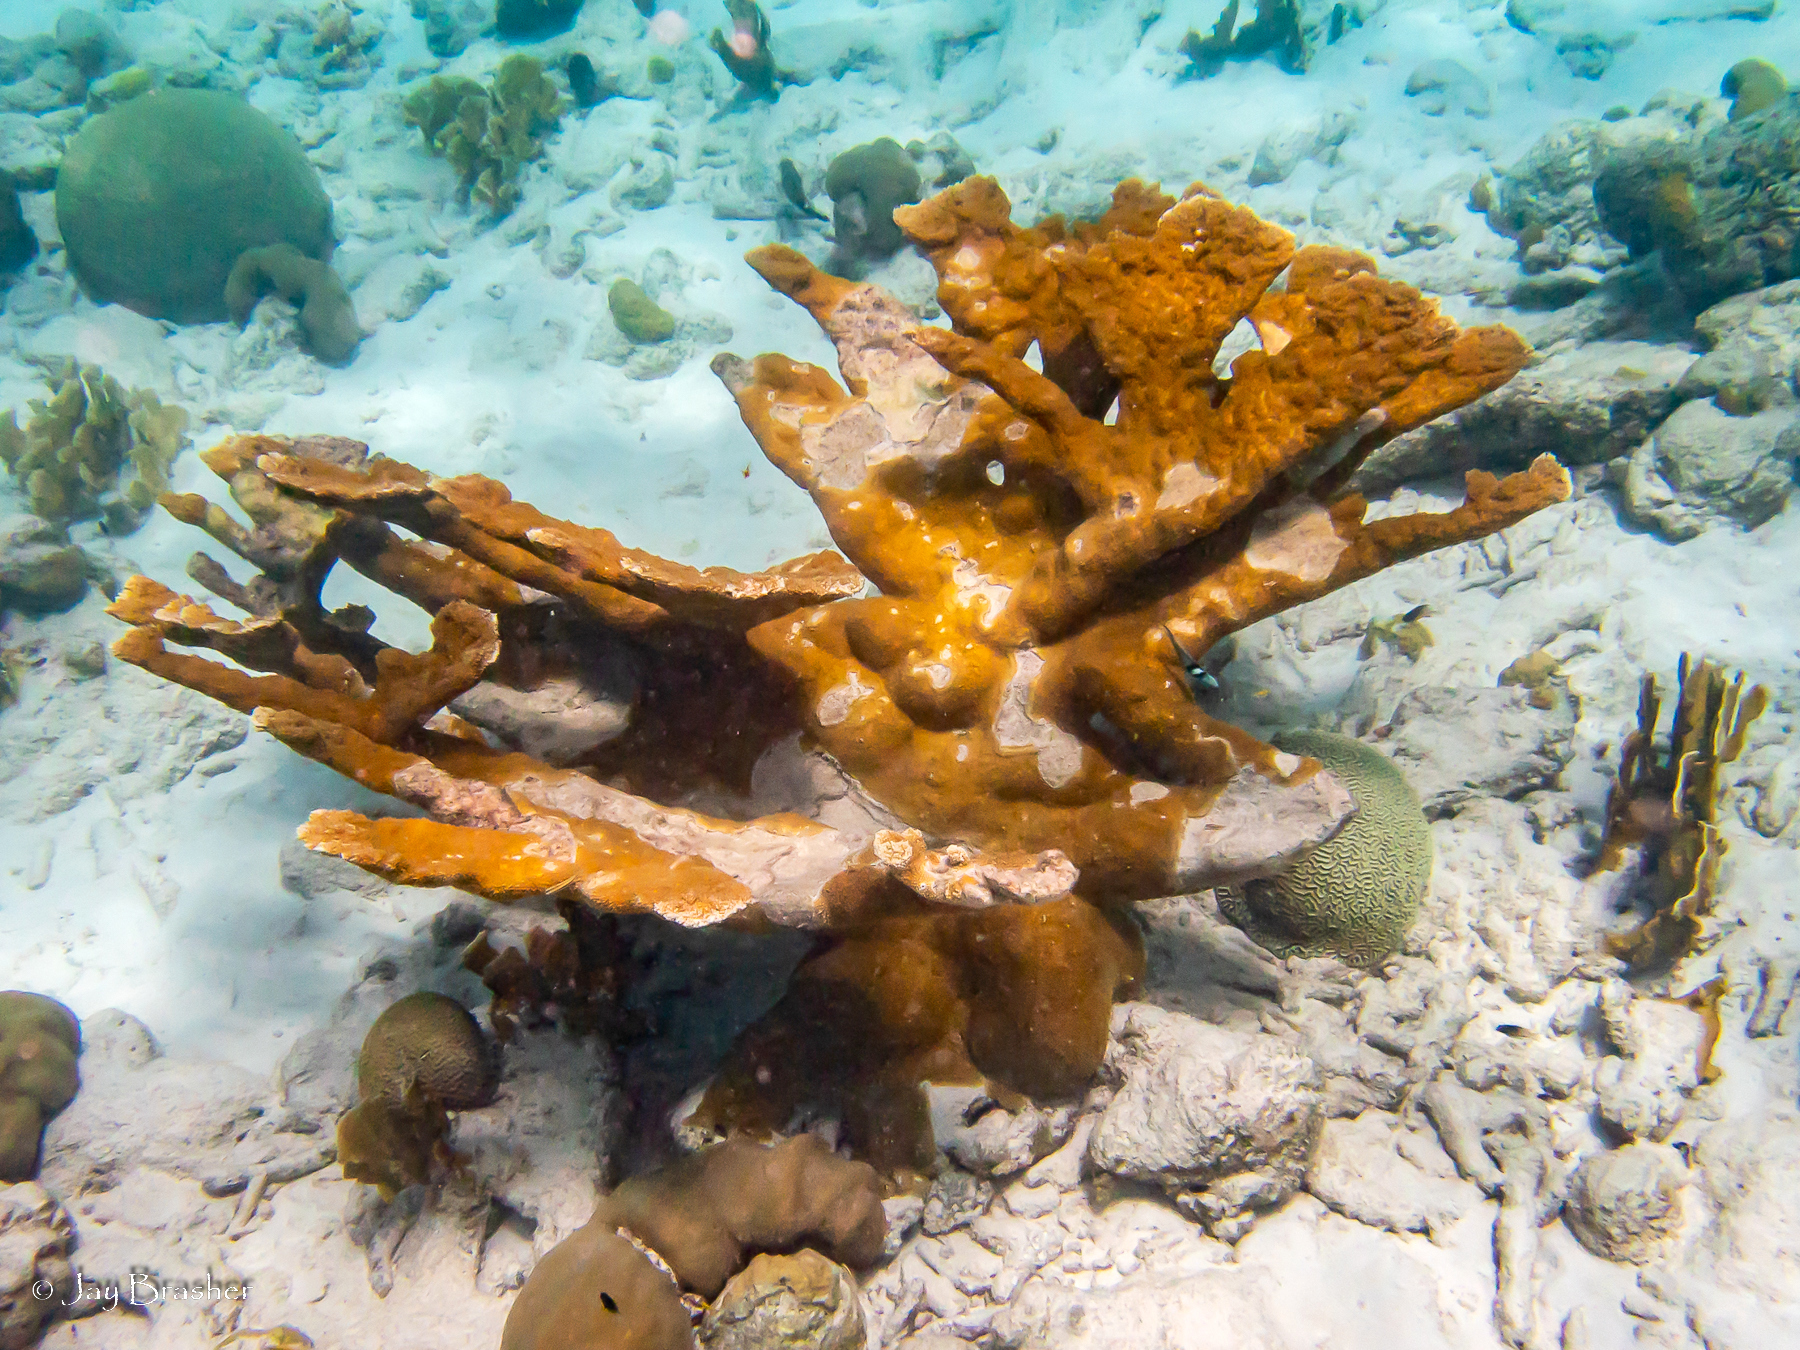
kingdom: Animalia
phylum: Cnidaria
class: Anthozoa
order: Scleractinia
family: Acroporidae
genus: Acropora
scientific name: Acropora palmata
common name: Elkhorn coral
